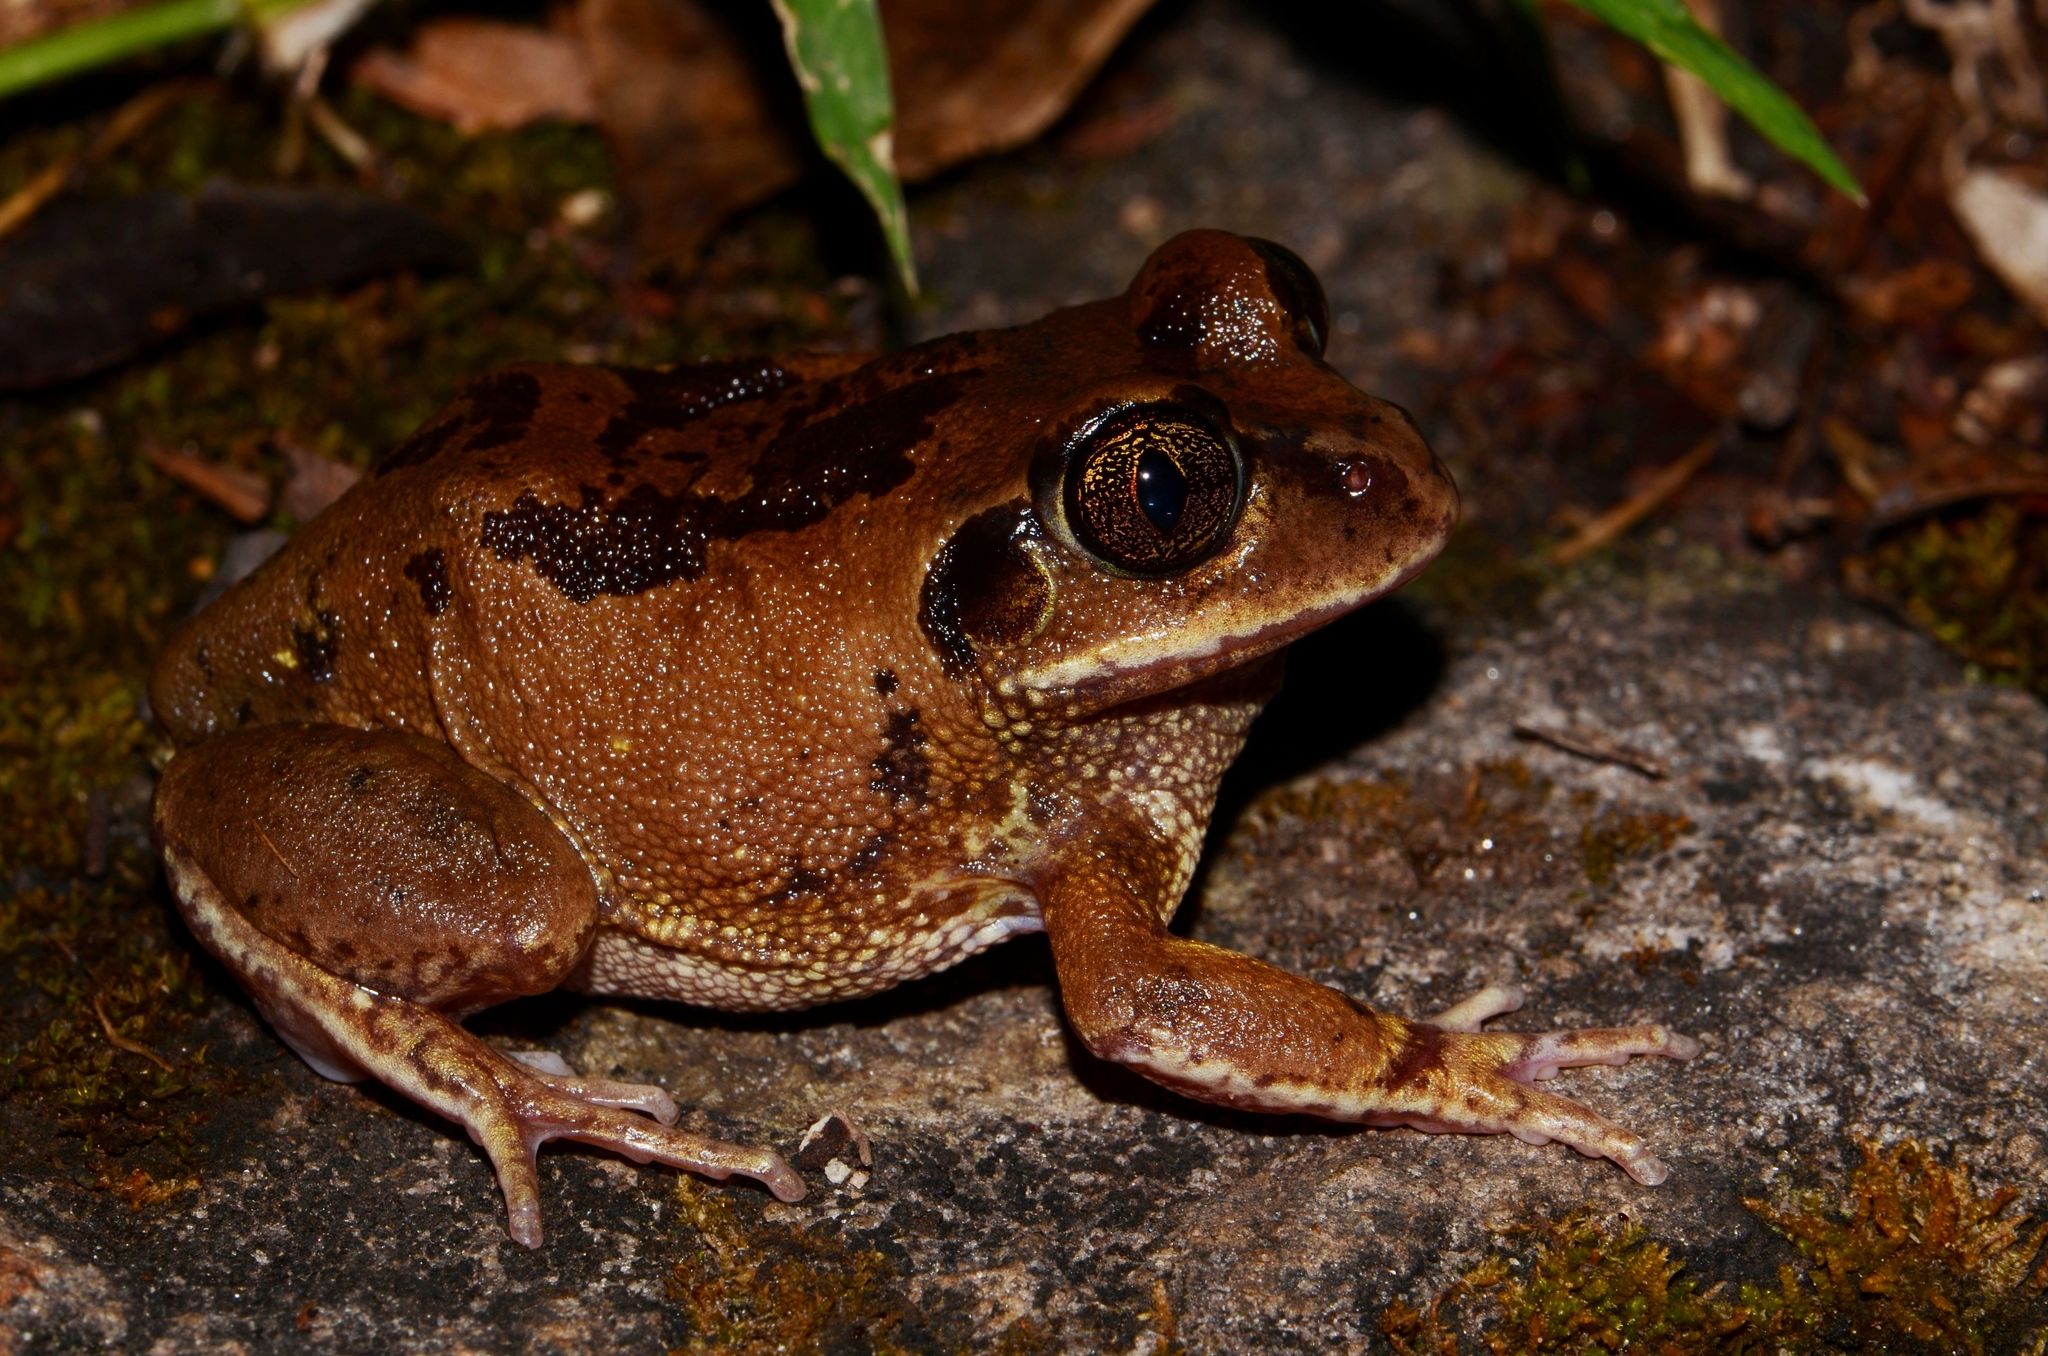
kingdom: Animalia
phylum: Chordata
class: Amphibia
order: Anura
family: Arthroleptidae
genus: Leptopelis
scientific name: Leptopelis bocagii
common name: Bocage's frog
